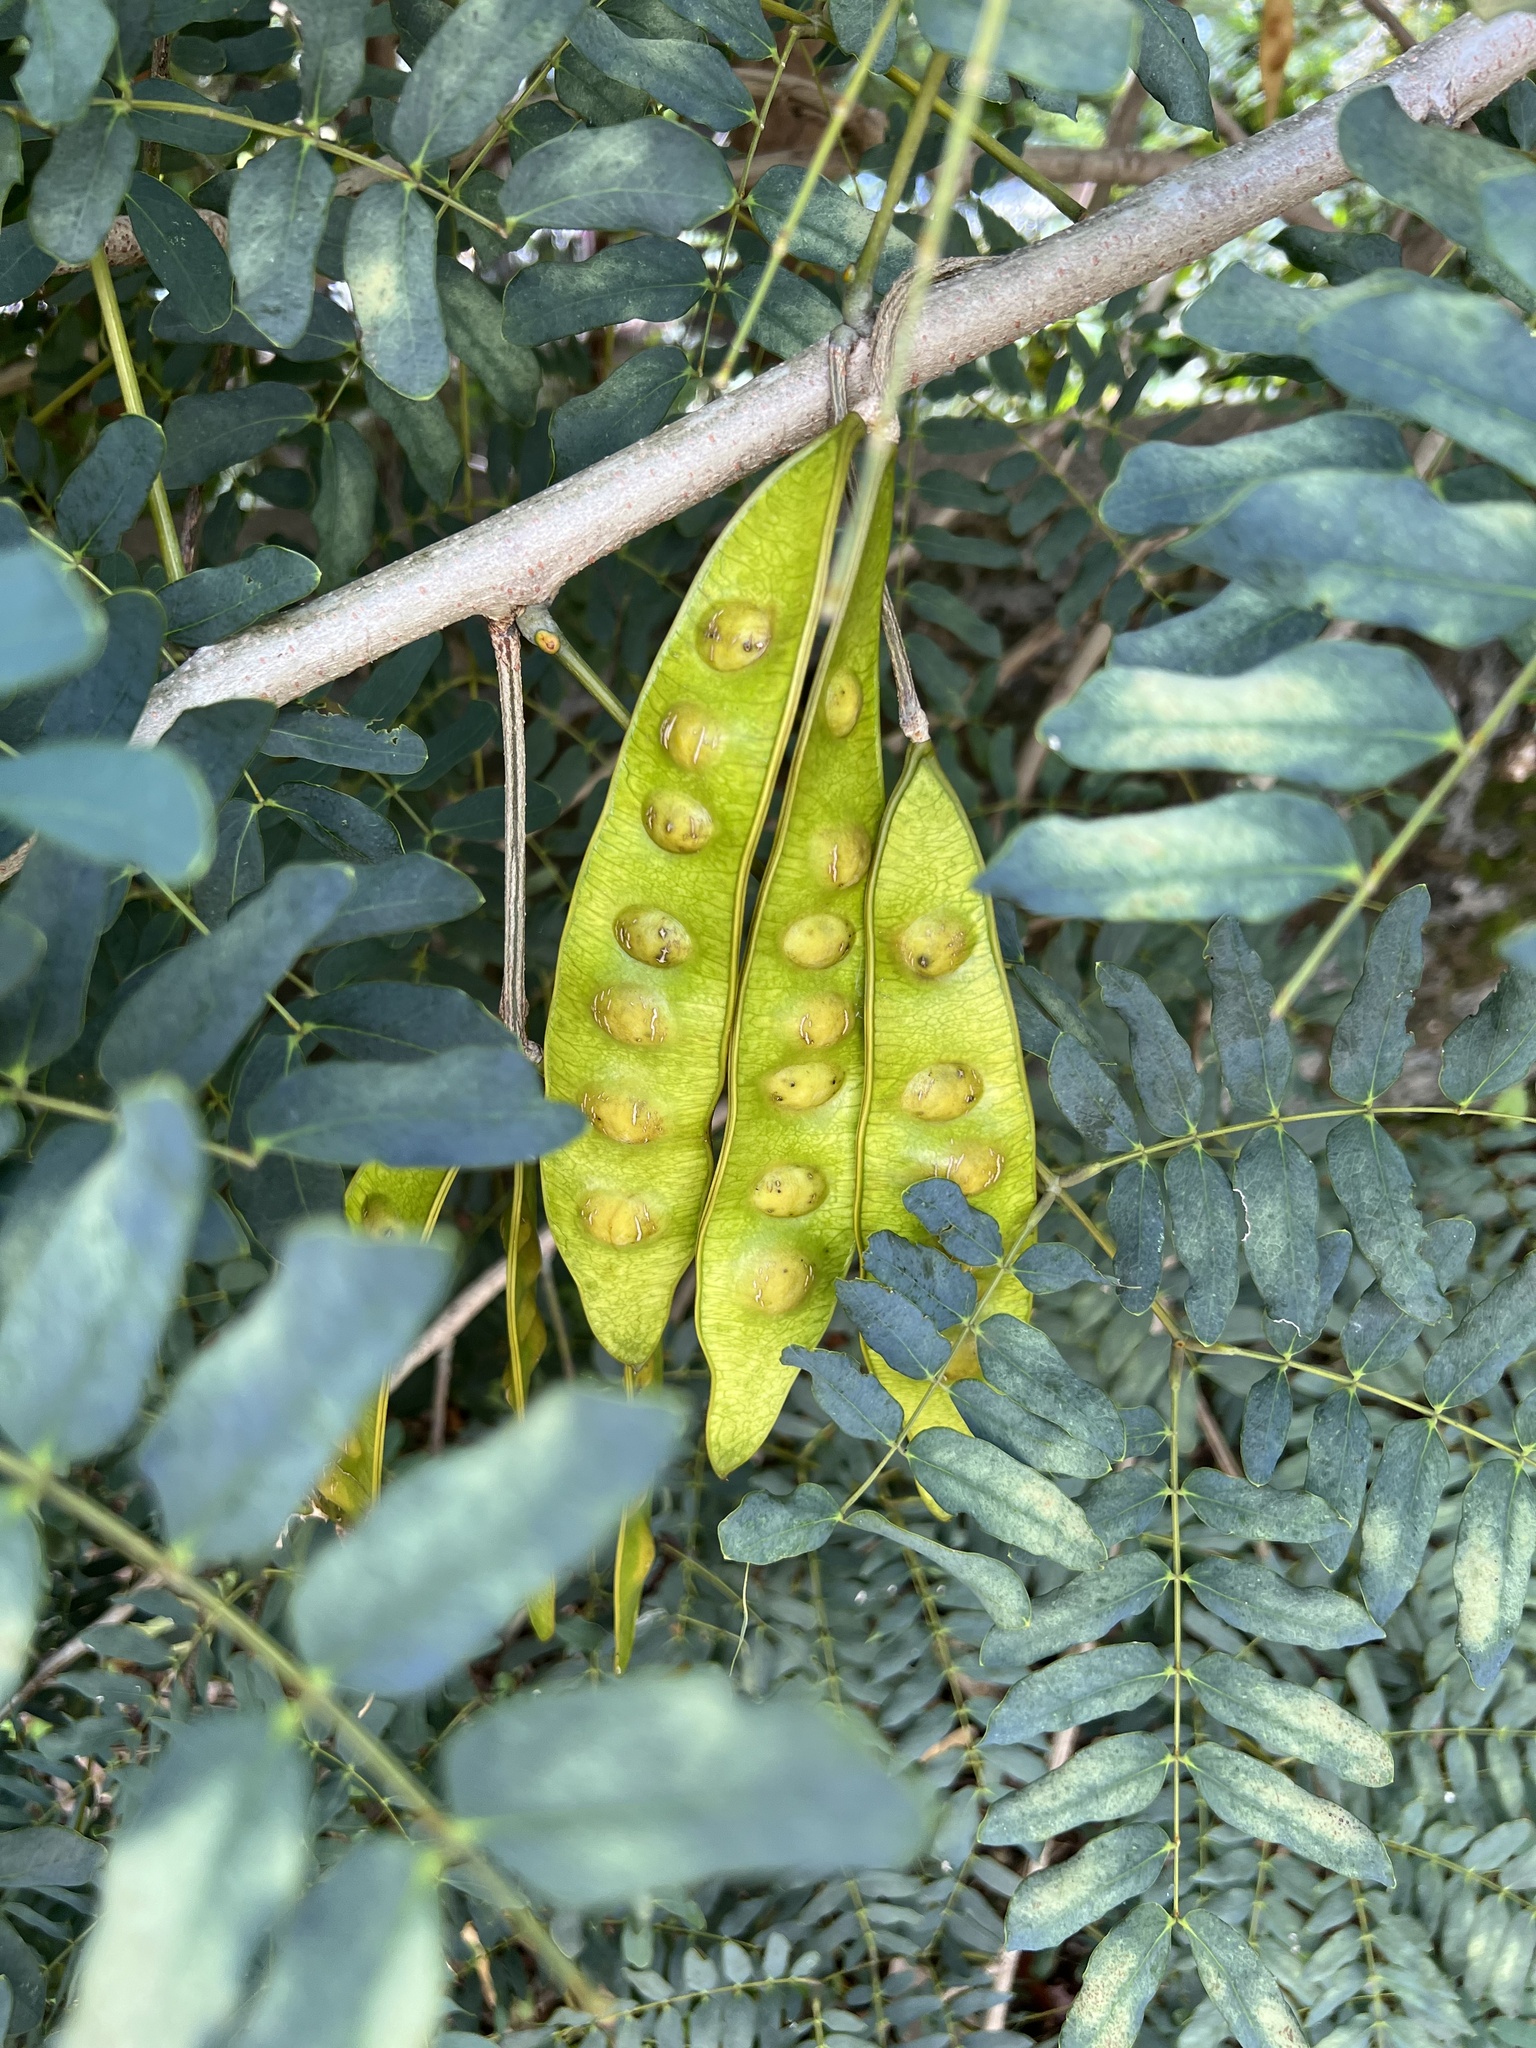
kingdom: Plantae
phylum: Tracheophyta
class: Magnoliopsida
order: Fabales
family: Fabaceae
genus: Albizia
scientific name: Albizia lebbeck
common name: Woman's tongue
